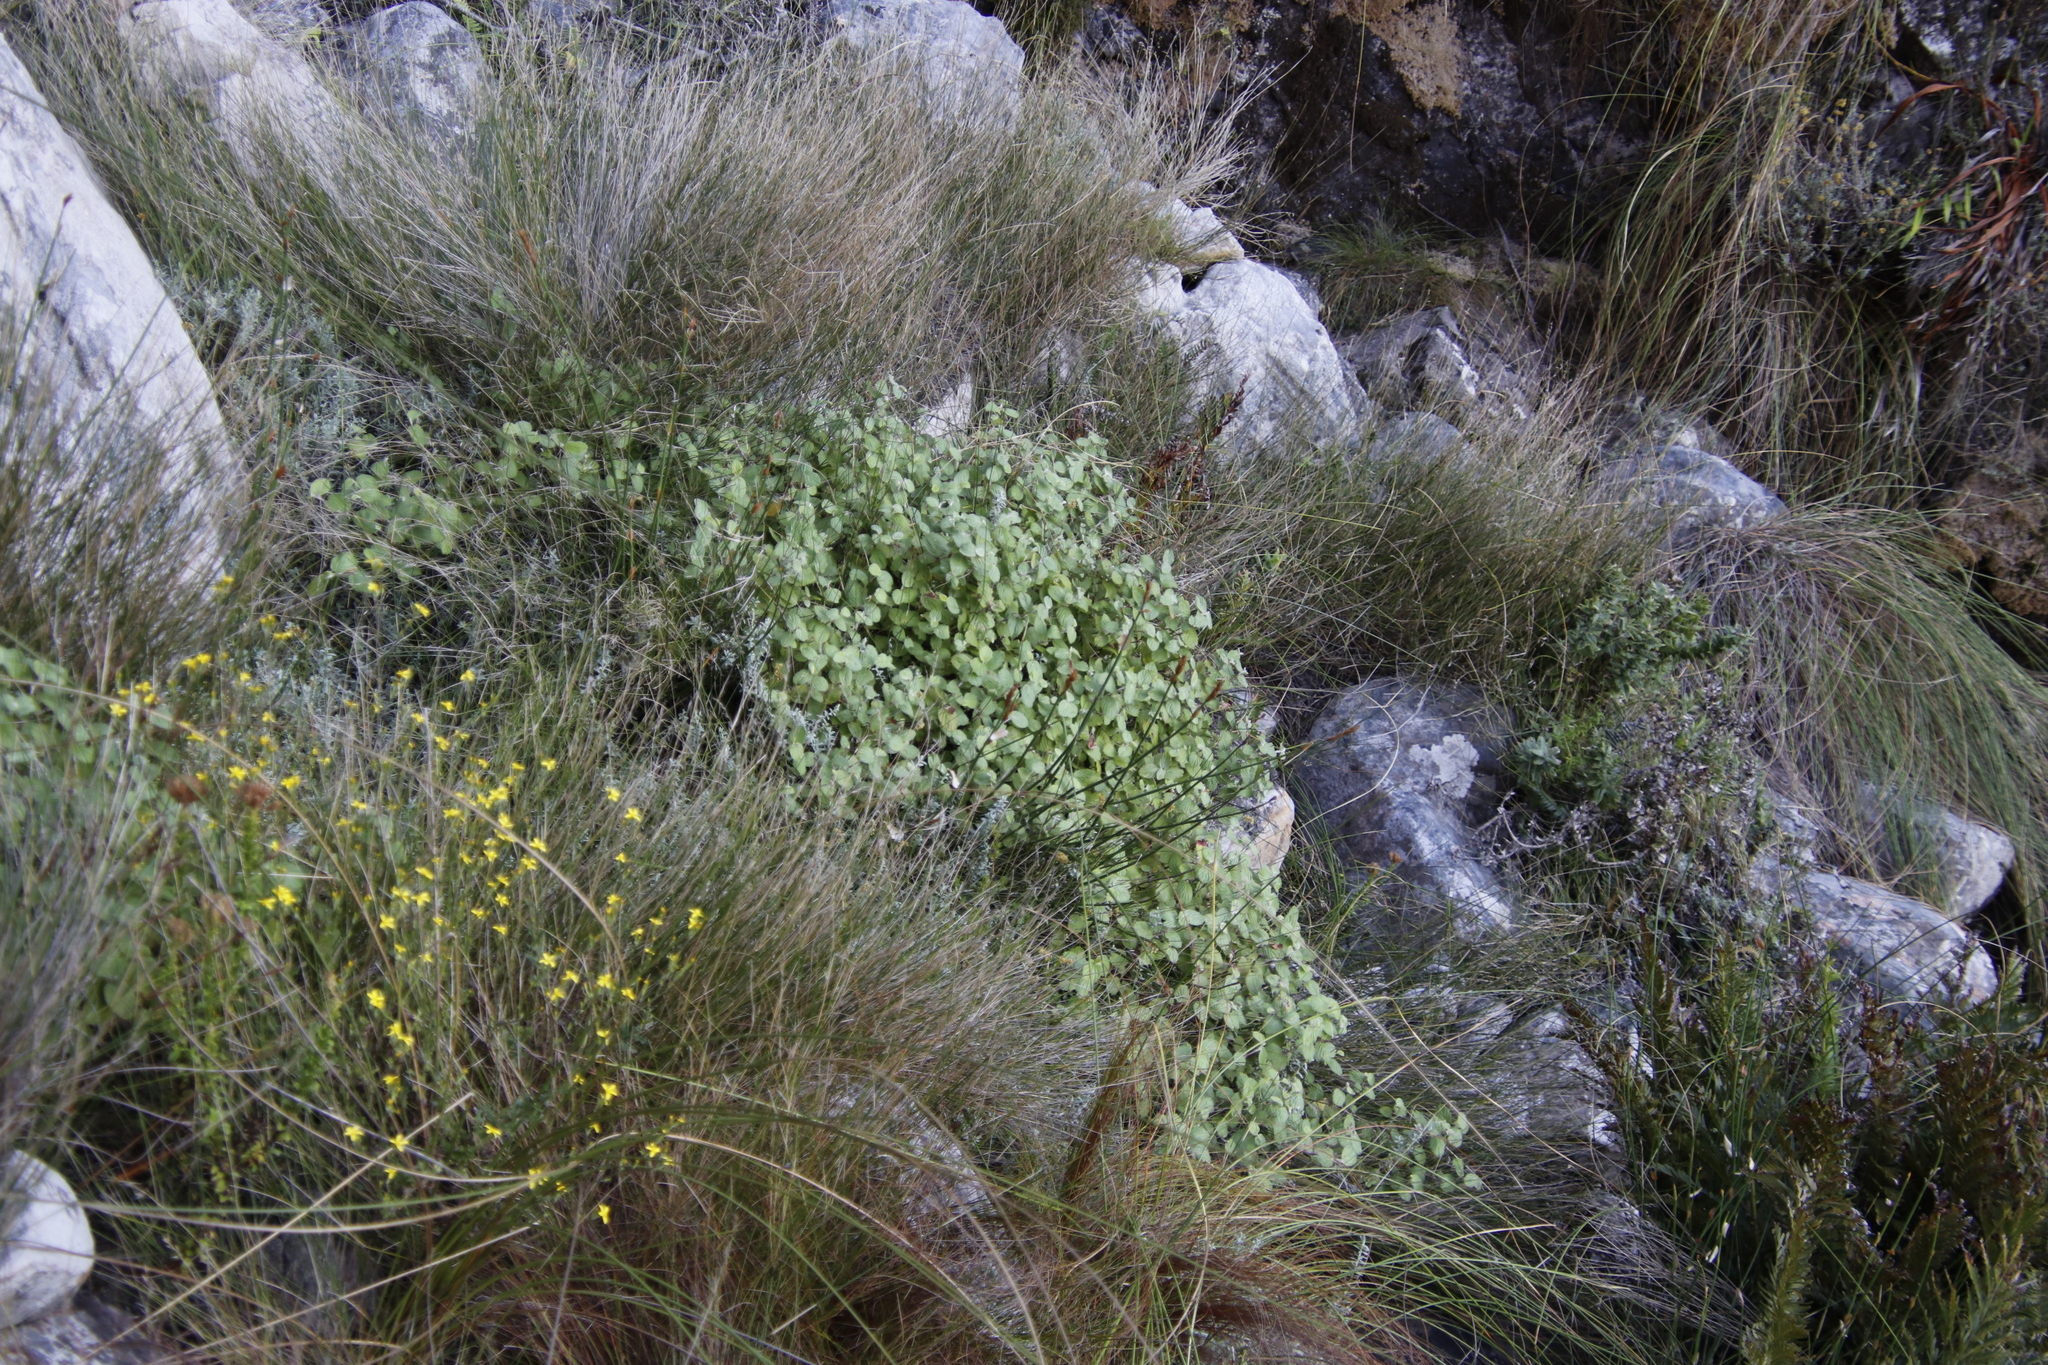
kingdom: Plantae
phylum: Tracheophyta
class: Magnoliopsida
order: Rosales
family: Rosaceae
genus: Cliffortia
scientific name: Cliffortia odorata
